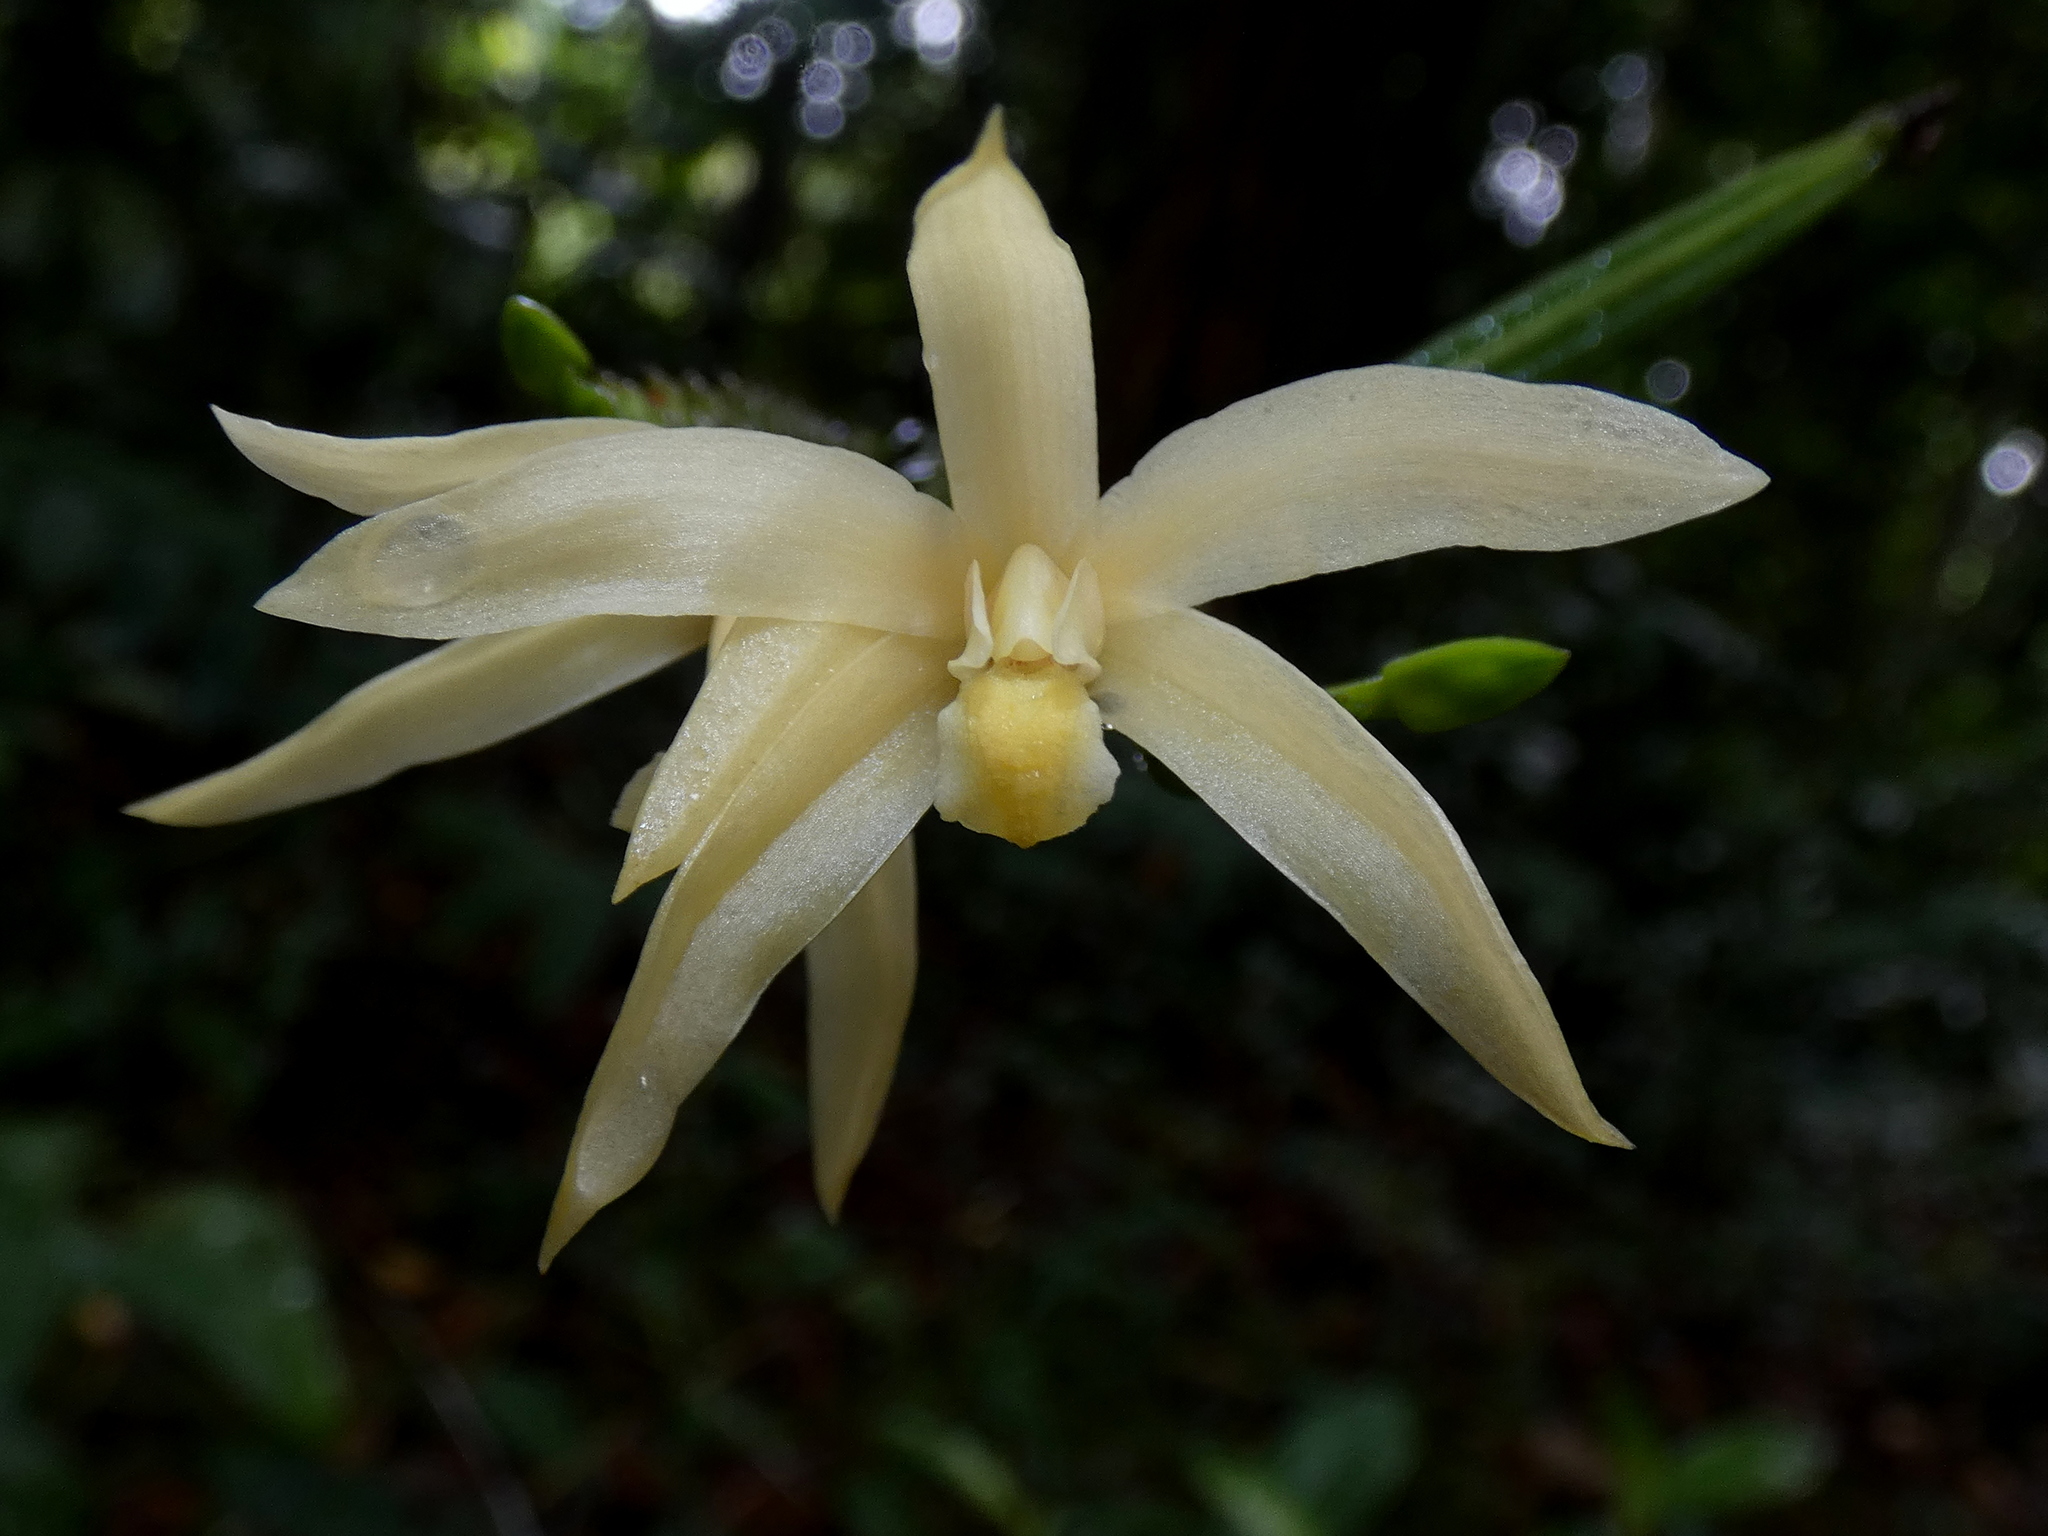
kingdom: Plantae
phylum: Tracheophyta
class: Liliopsida
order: Asparagales
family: Orchidaceae
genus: Bromheadia
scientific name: Bromheadia borneensis
